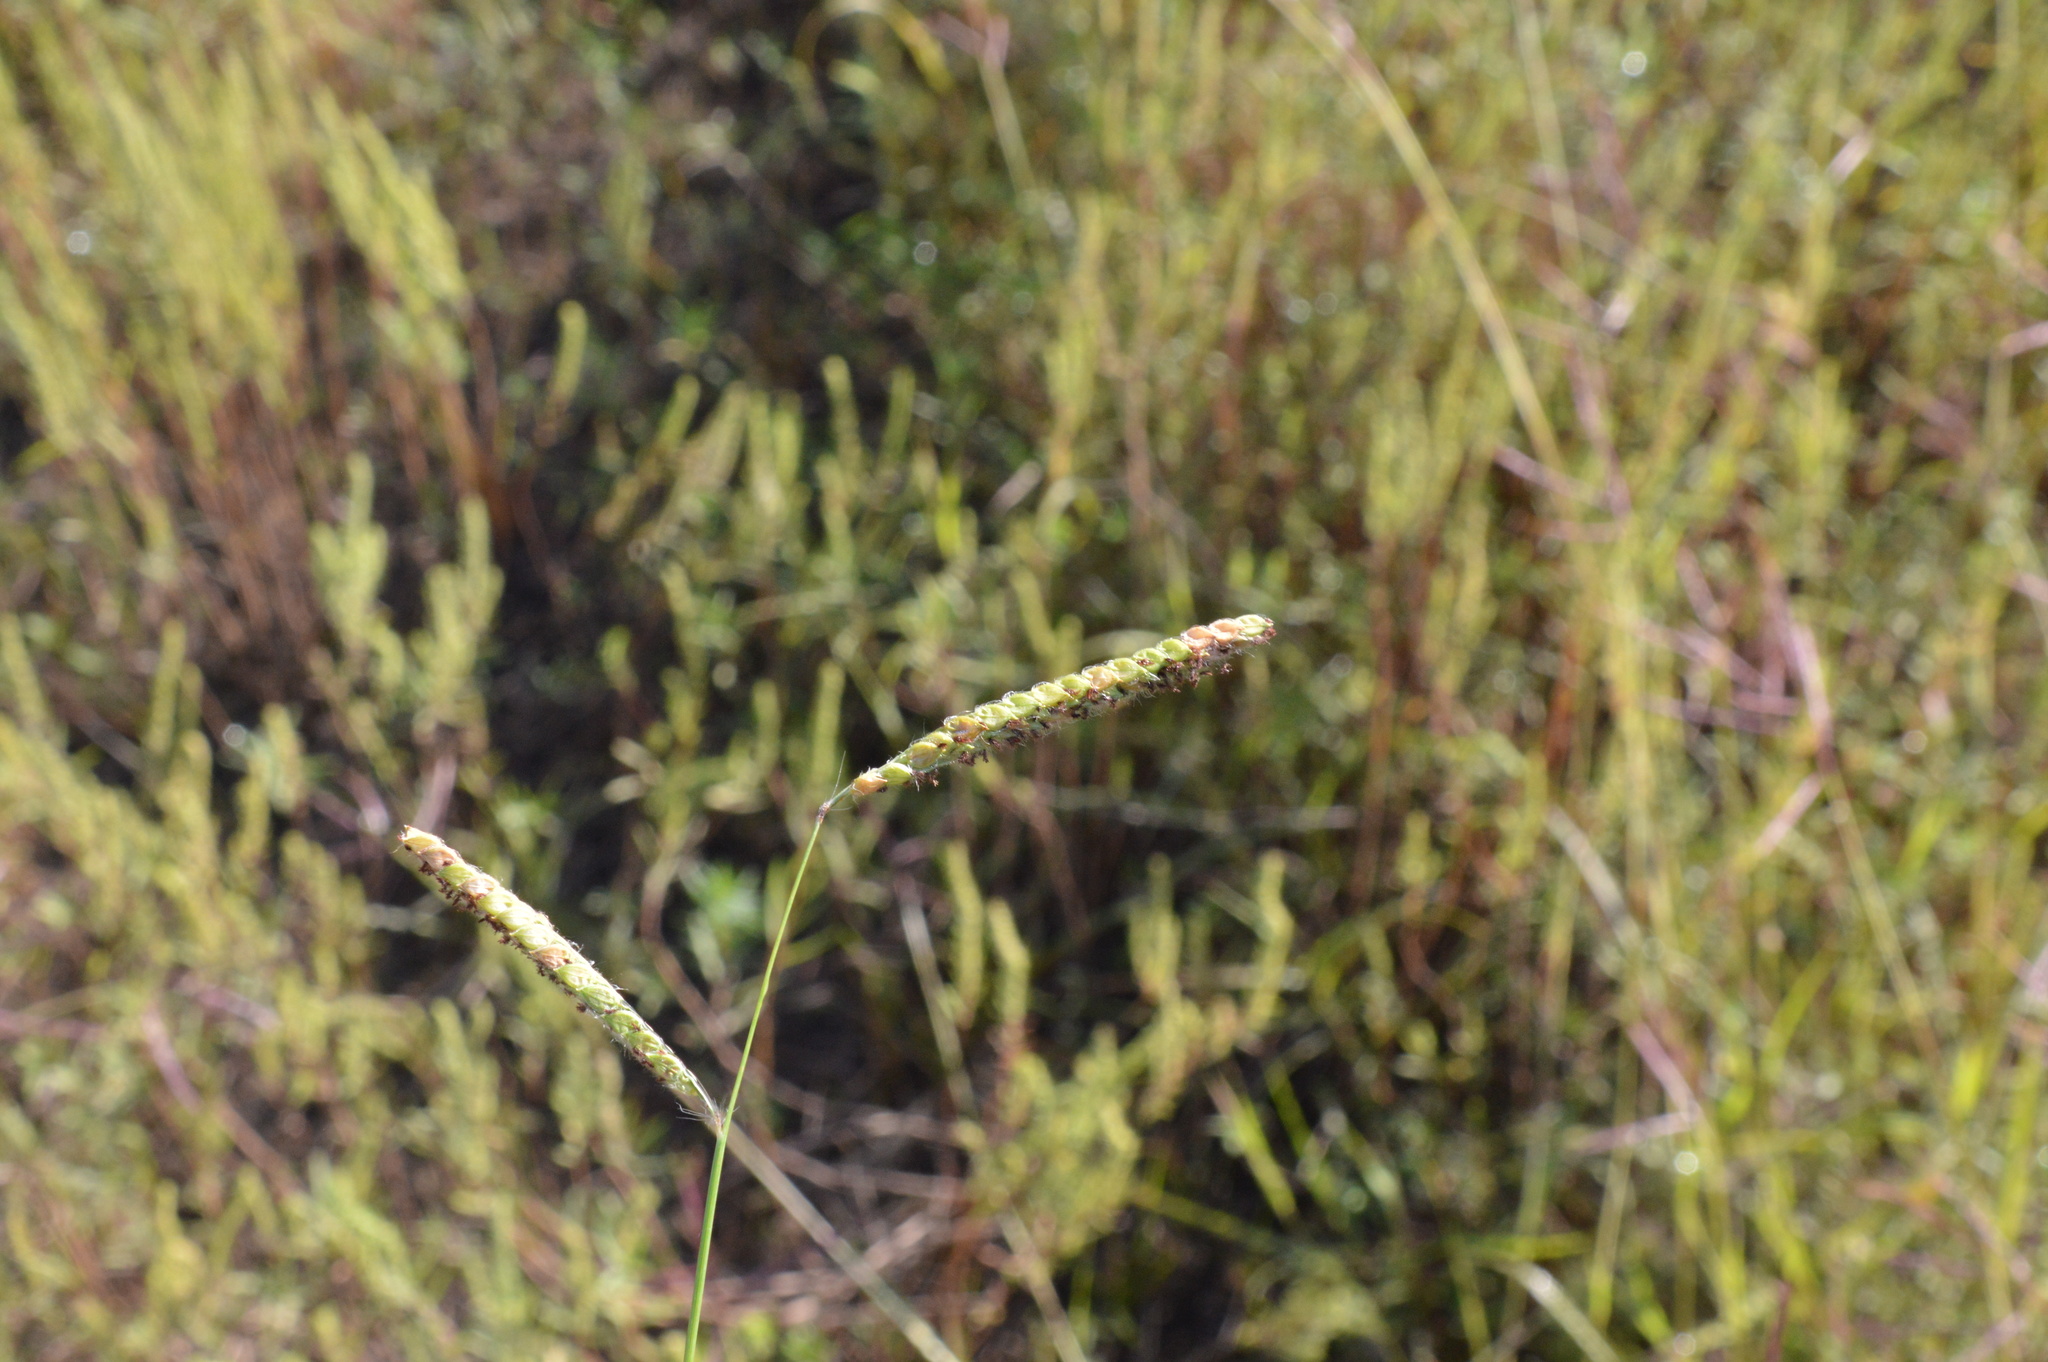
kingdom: Plantae
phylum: Tracheophyta
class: Liliopsida
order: Poales
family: Poaceae
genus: Paspalum
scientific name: Paspalum dilatatum
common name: Dallisgrass
